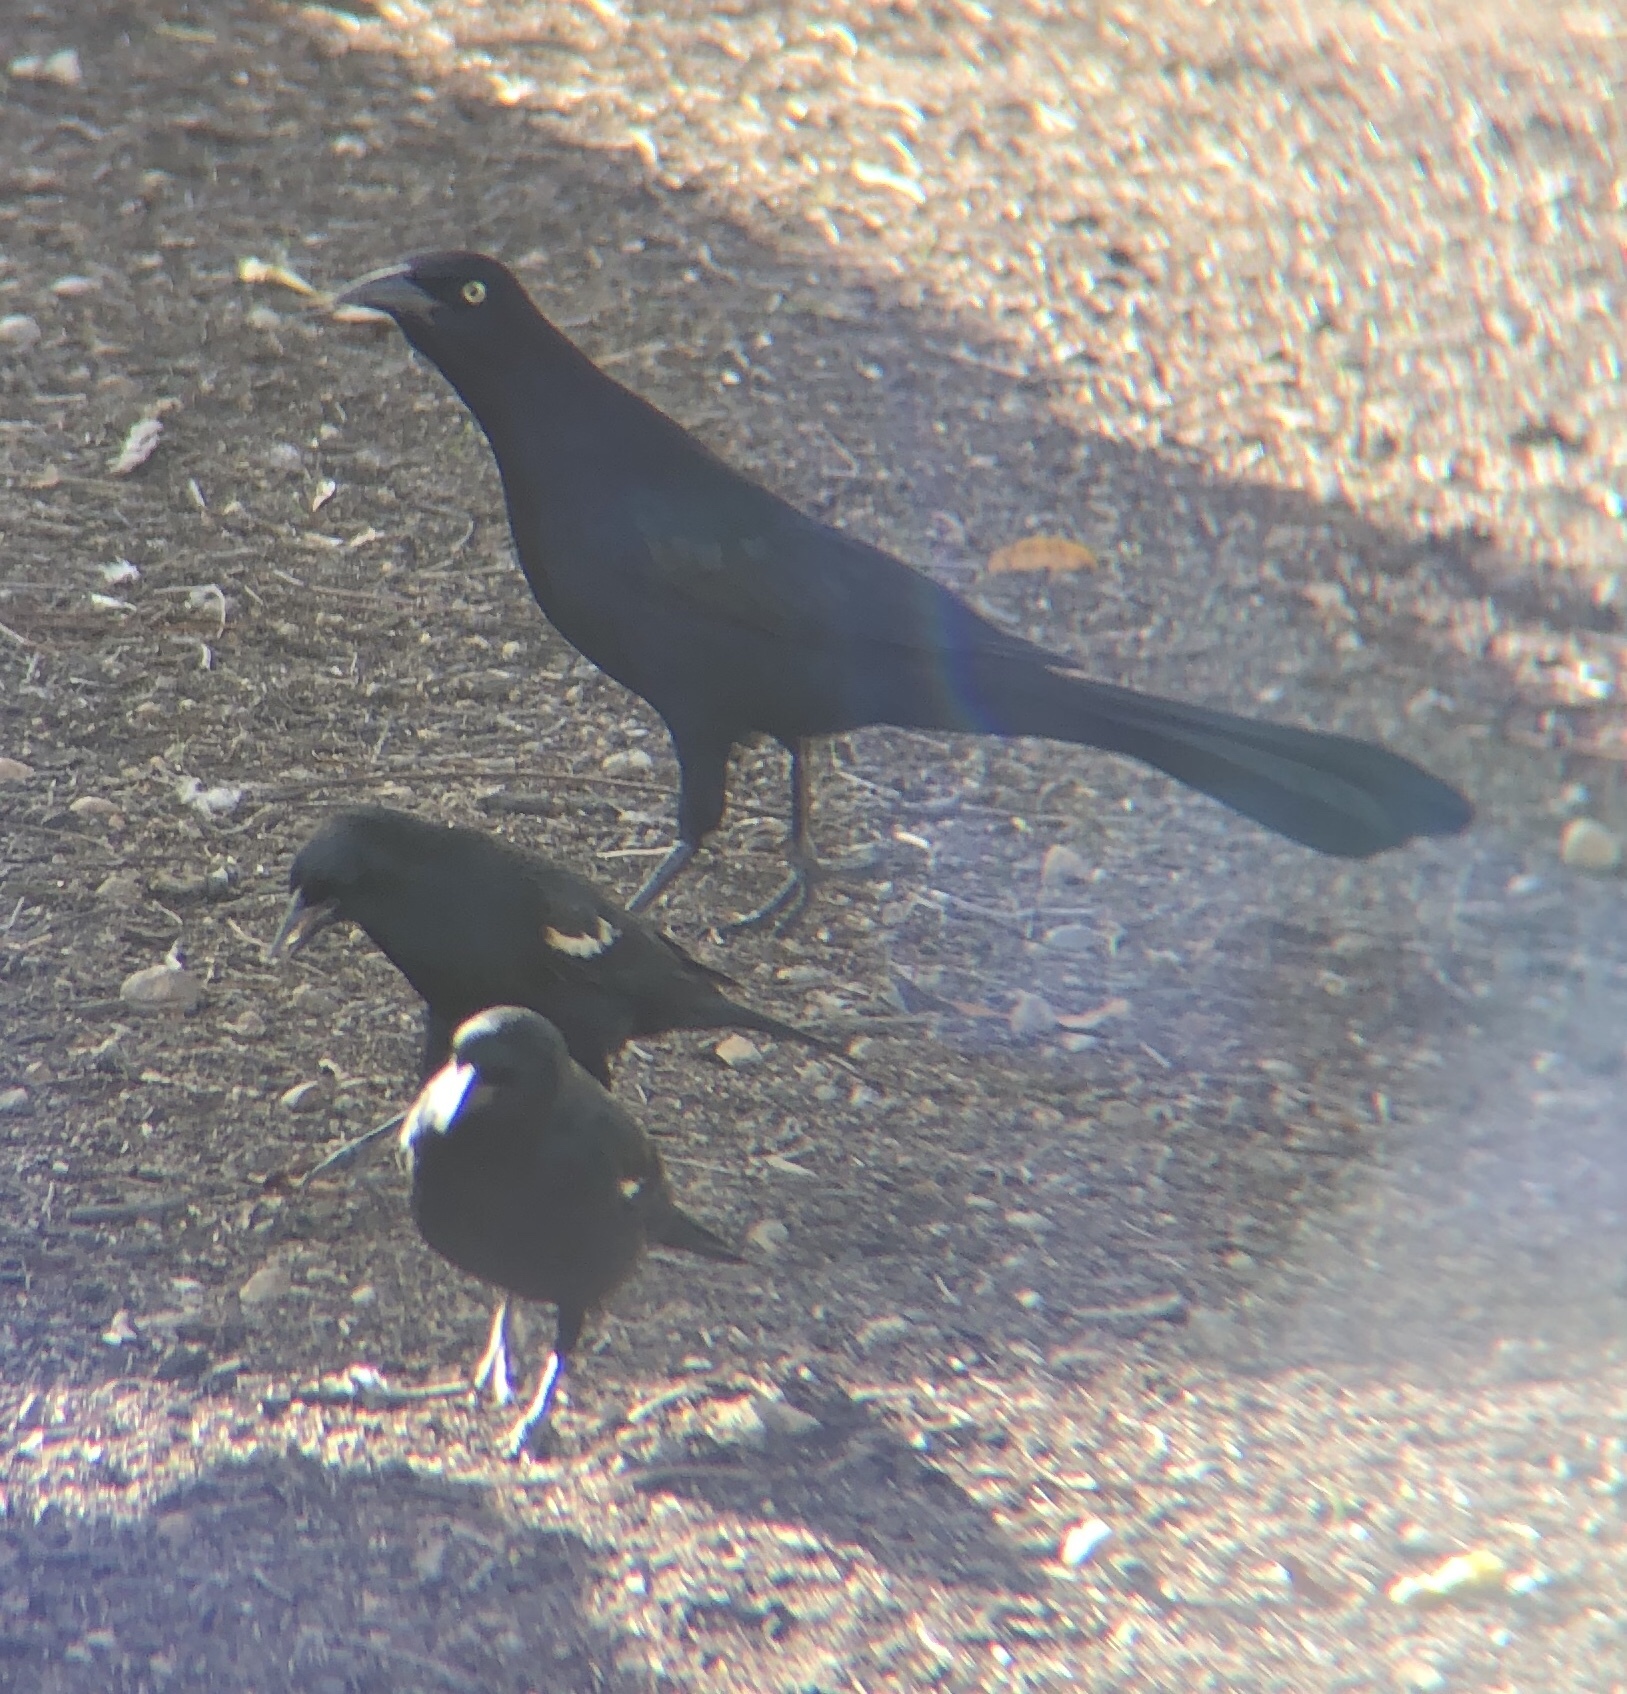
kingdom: Animalia
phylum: Chordata
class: Aves
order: Passeriformes
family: Icteridae
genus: Quiscalus
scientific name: Quiscalus mexicanus
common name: Great-tailed grackle
